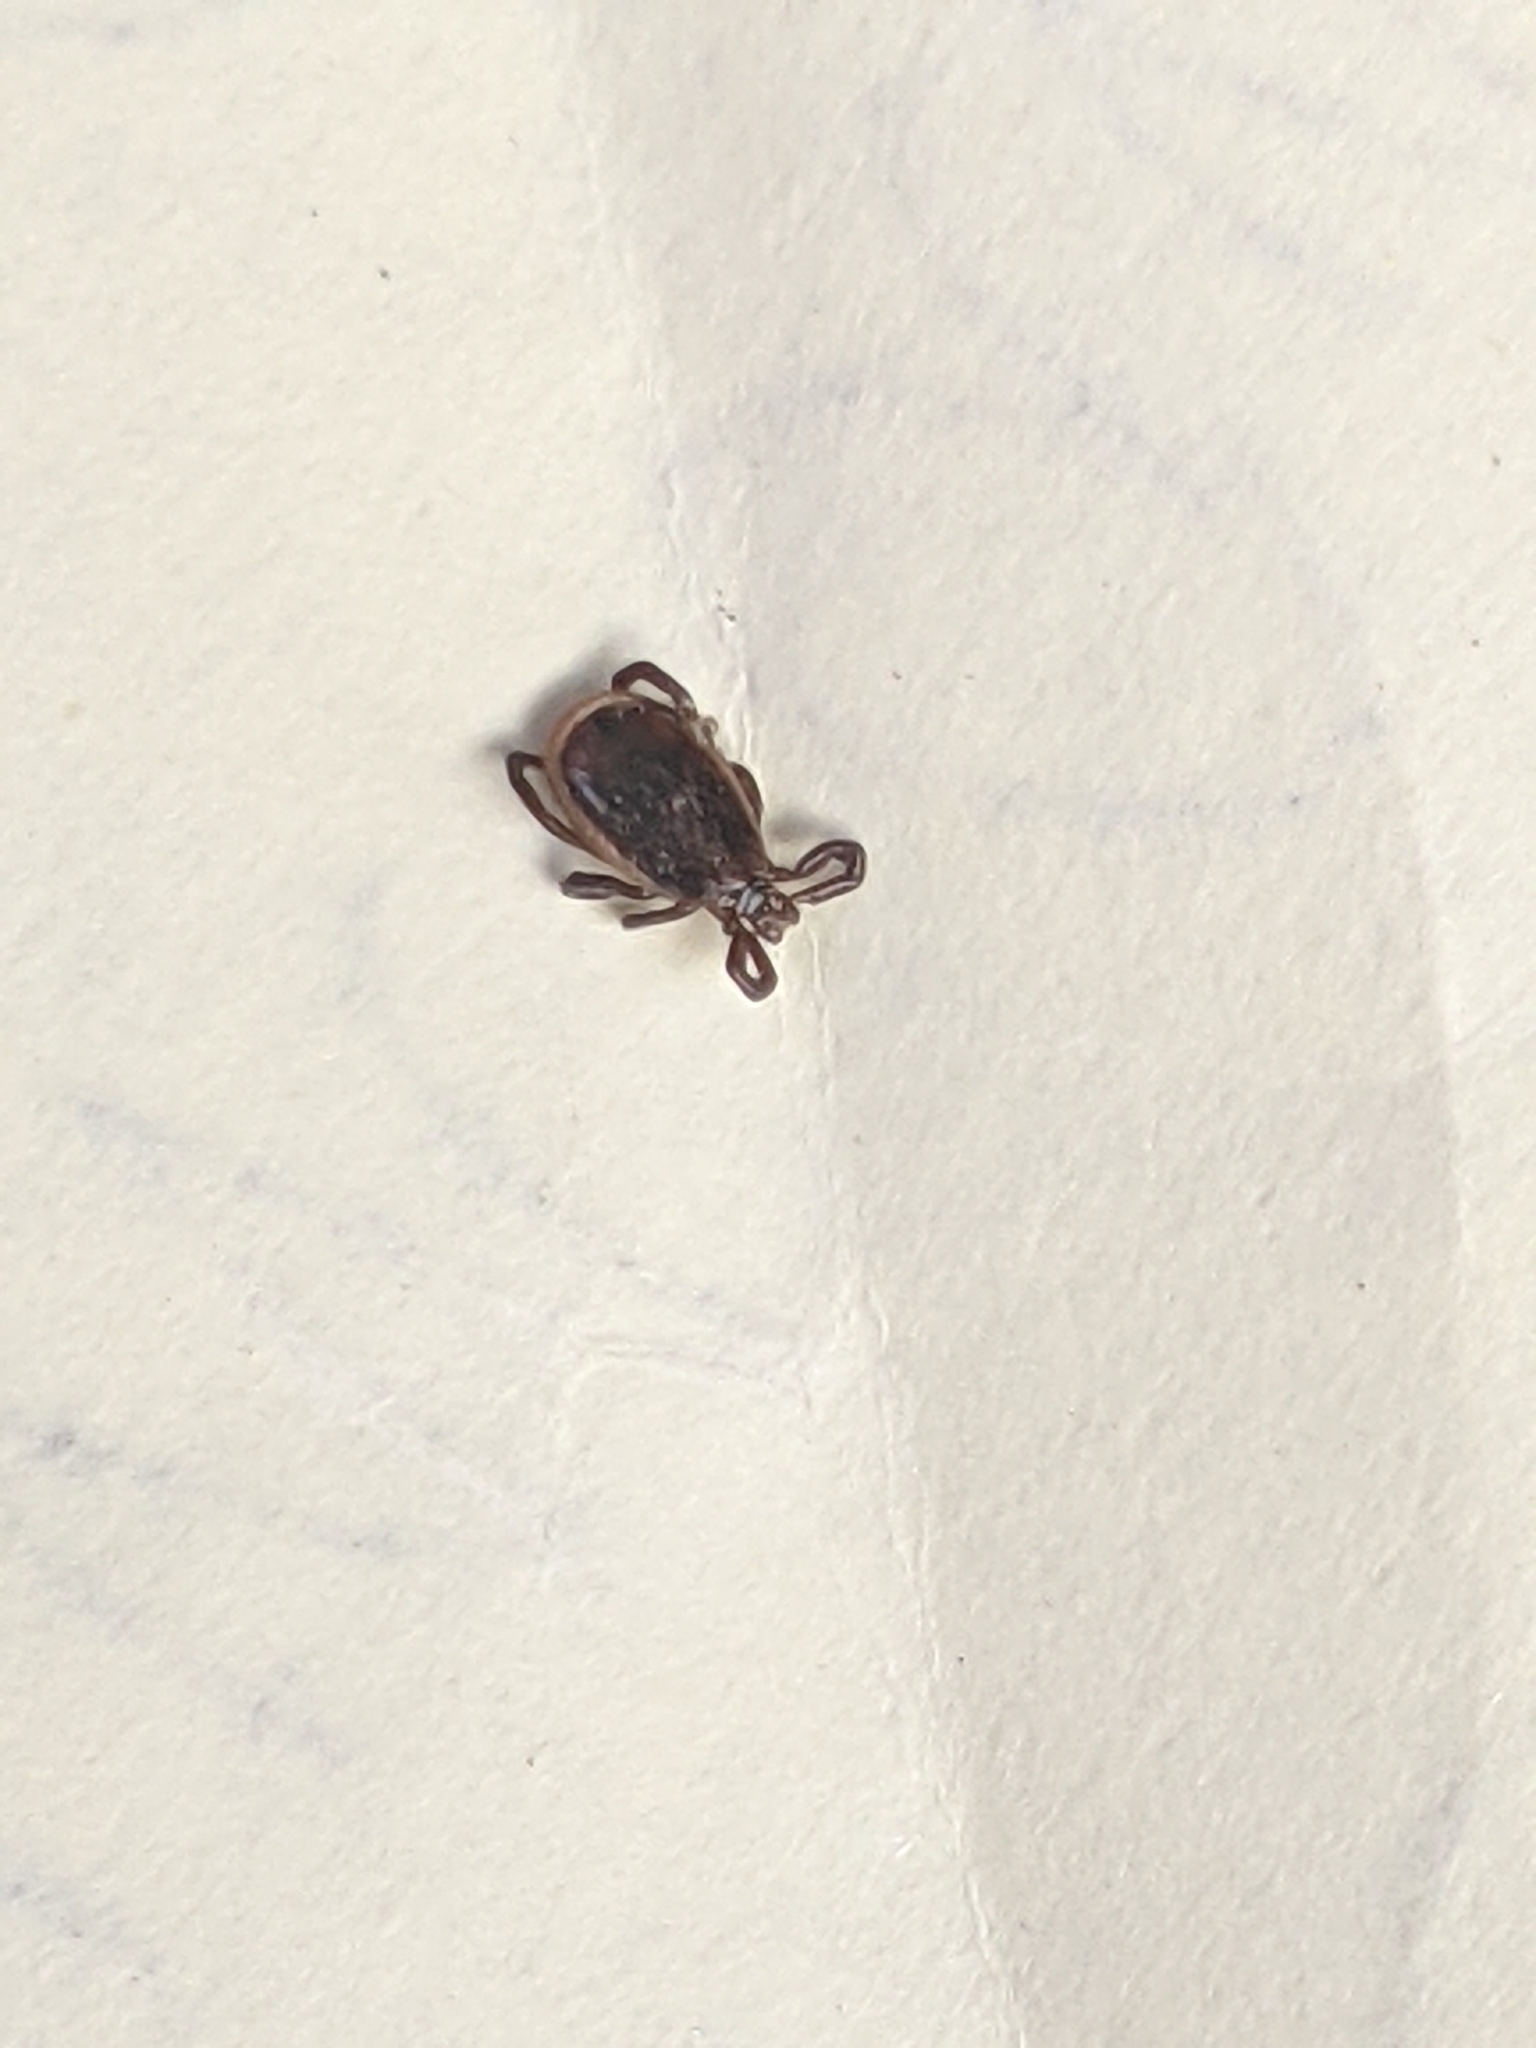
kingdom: Animalia
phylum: Arthropoda
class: Arachnida
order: Ixodida
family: Ixodidae
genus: Ixodes
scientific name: Ixodes scapularis
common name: Black legged tick
